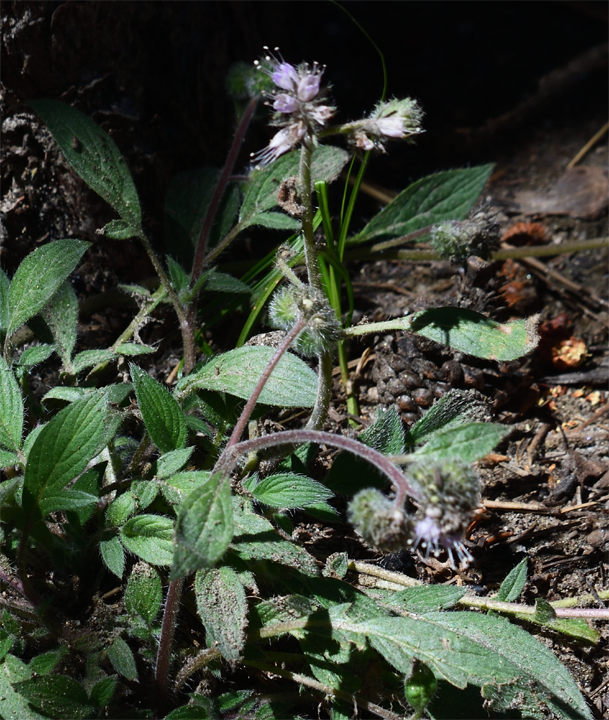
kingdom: Plantae
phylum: Tracheophyta
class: Magnoliopsida
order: Boraginales
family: Hydrophyllaceae
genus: Phacelia
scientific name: Phacelia mutabilis
